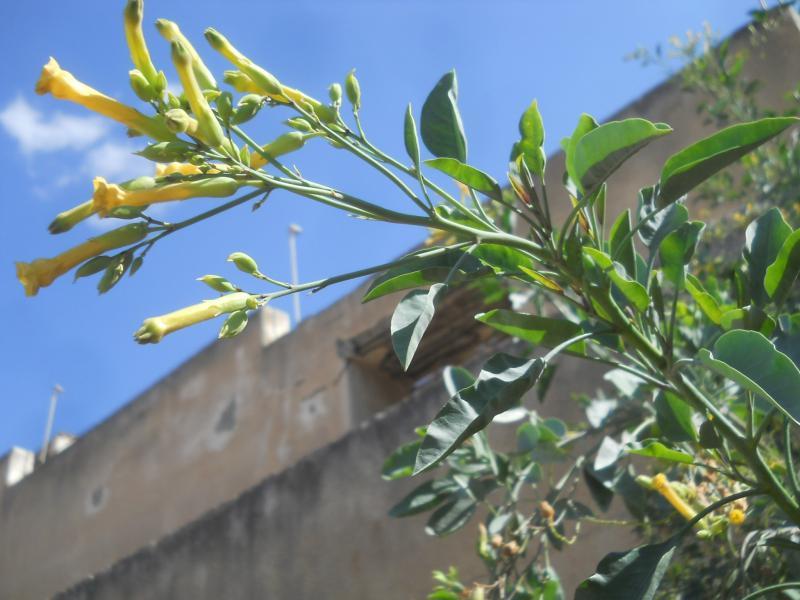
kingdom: Plantae
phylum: Tracheophyta
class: Magnoliopsida
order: Solanales
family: Solanaceae
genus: Nicotiana
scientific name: Nicotiana glauca
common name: Tree tobacco
